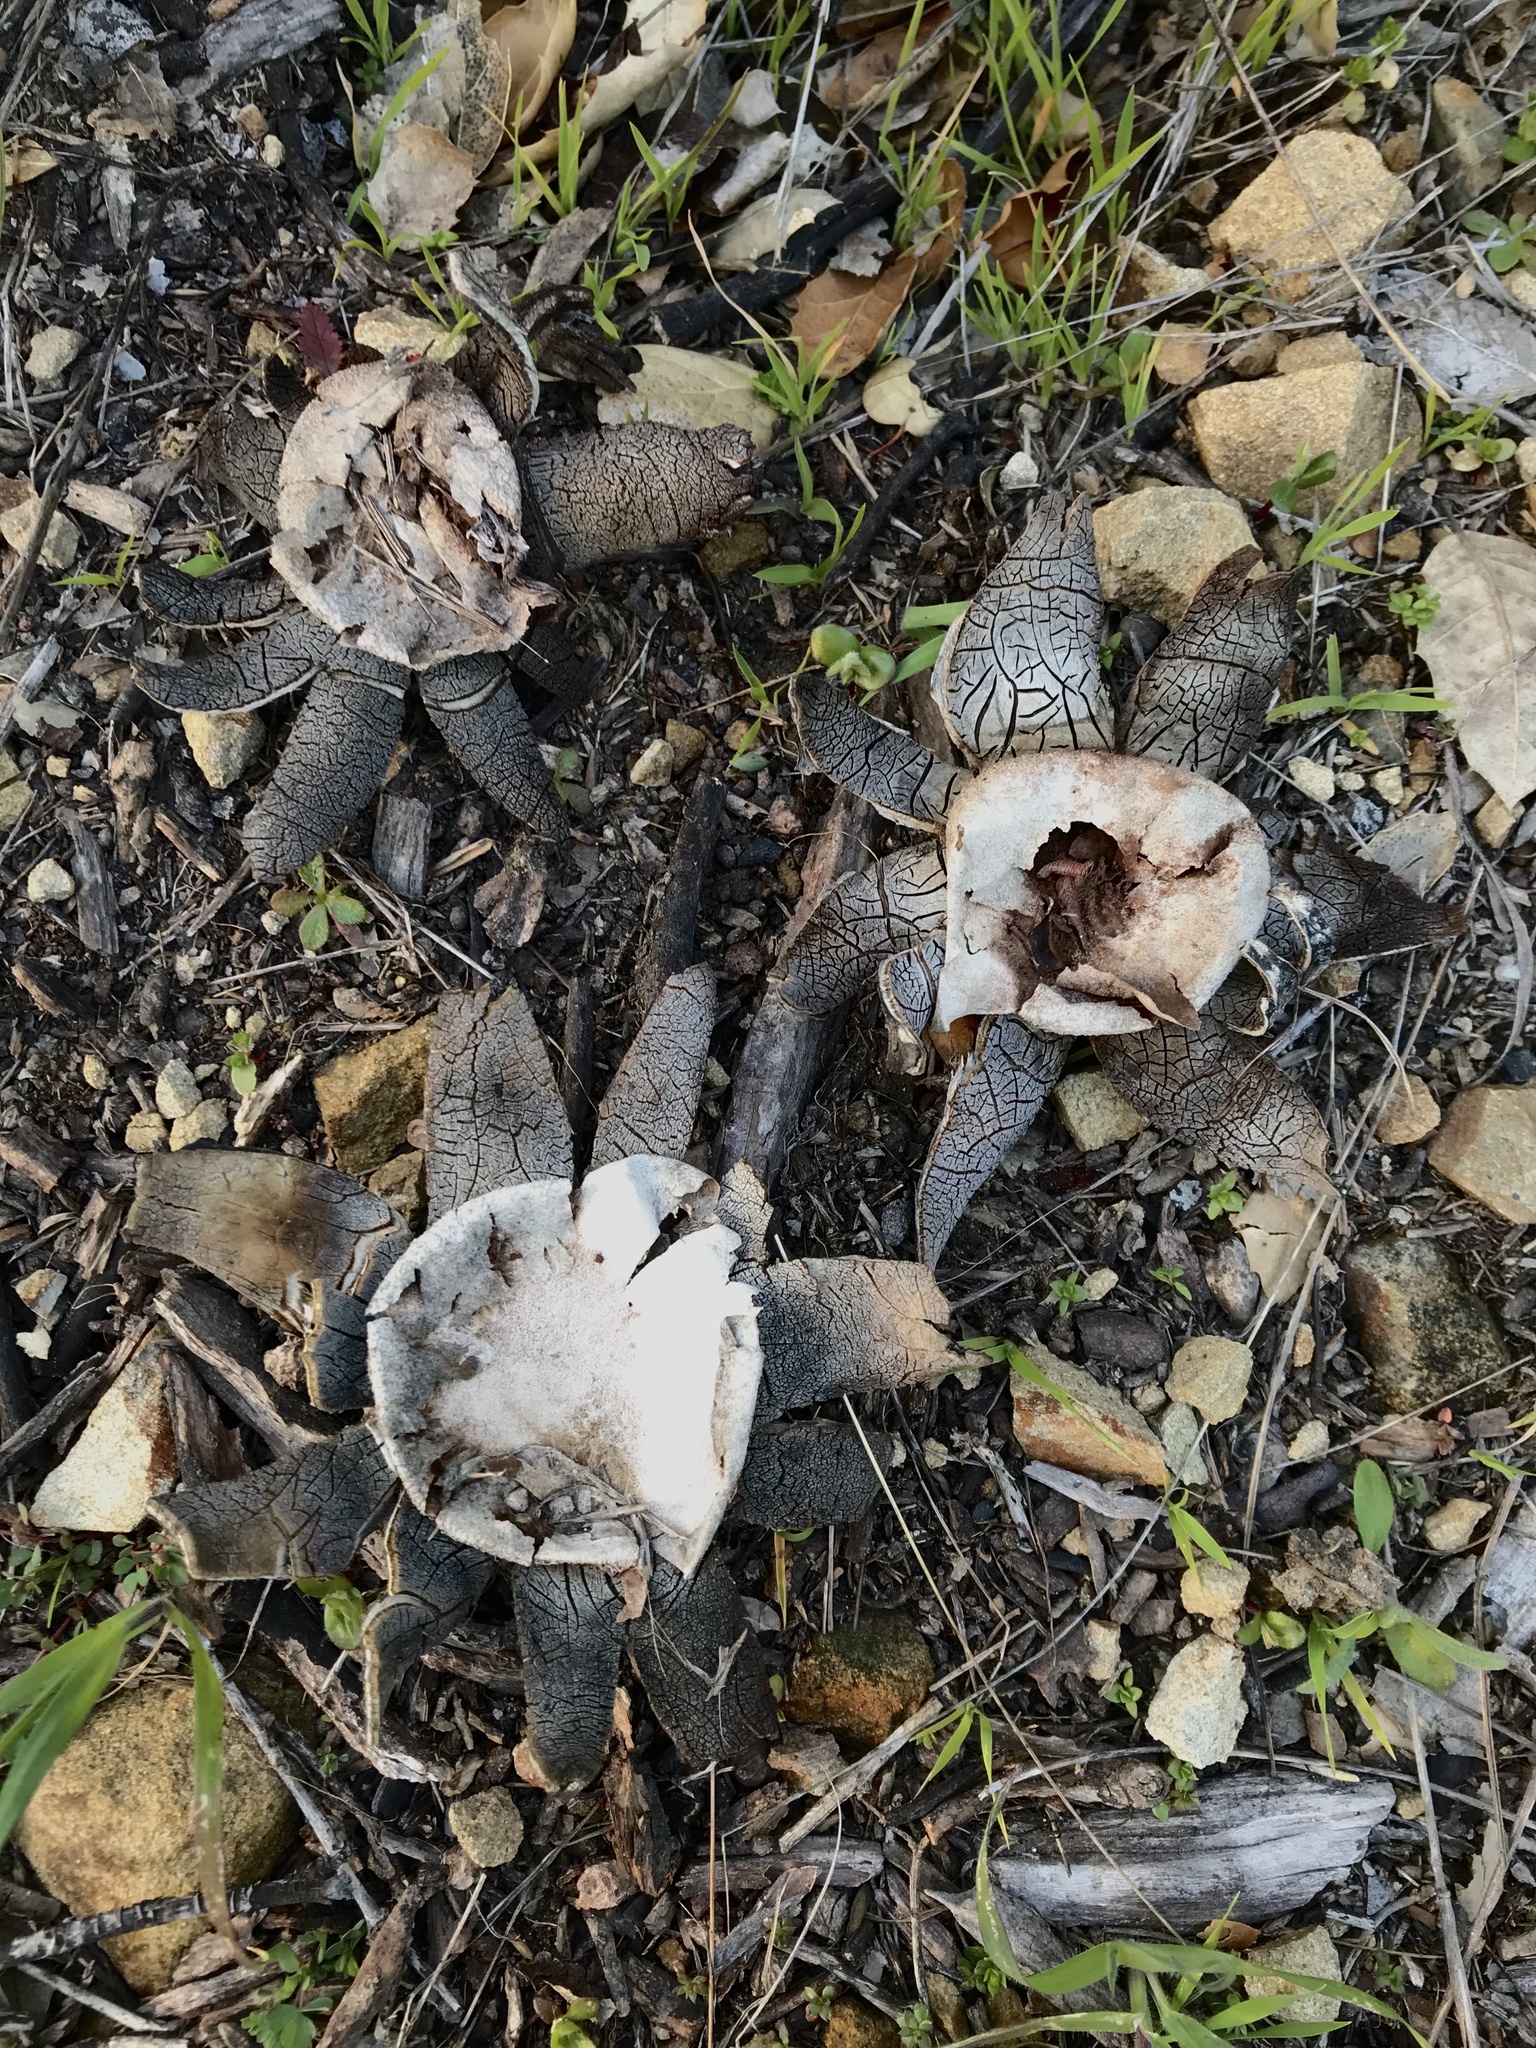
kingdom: Fungi
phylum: Basidiomycota
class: Agaricomycetes
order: Boletales
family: Diplocystidiaceae
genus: Astraeus
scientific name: Astraeus pteridis
